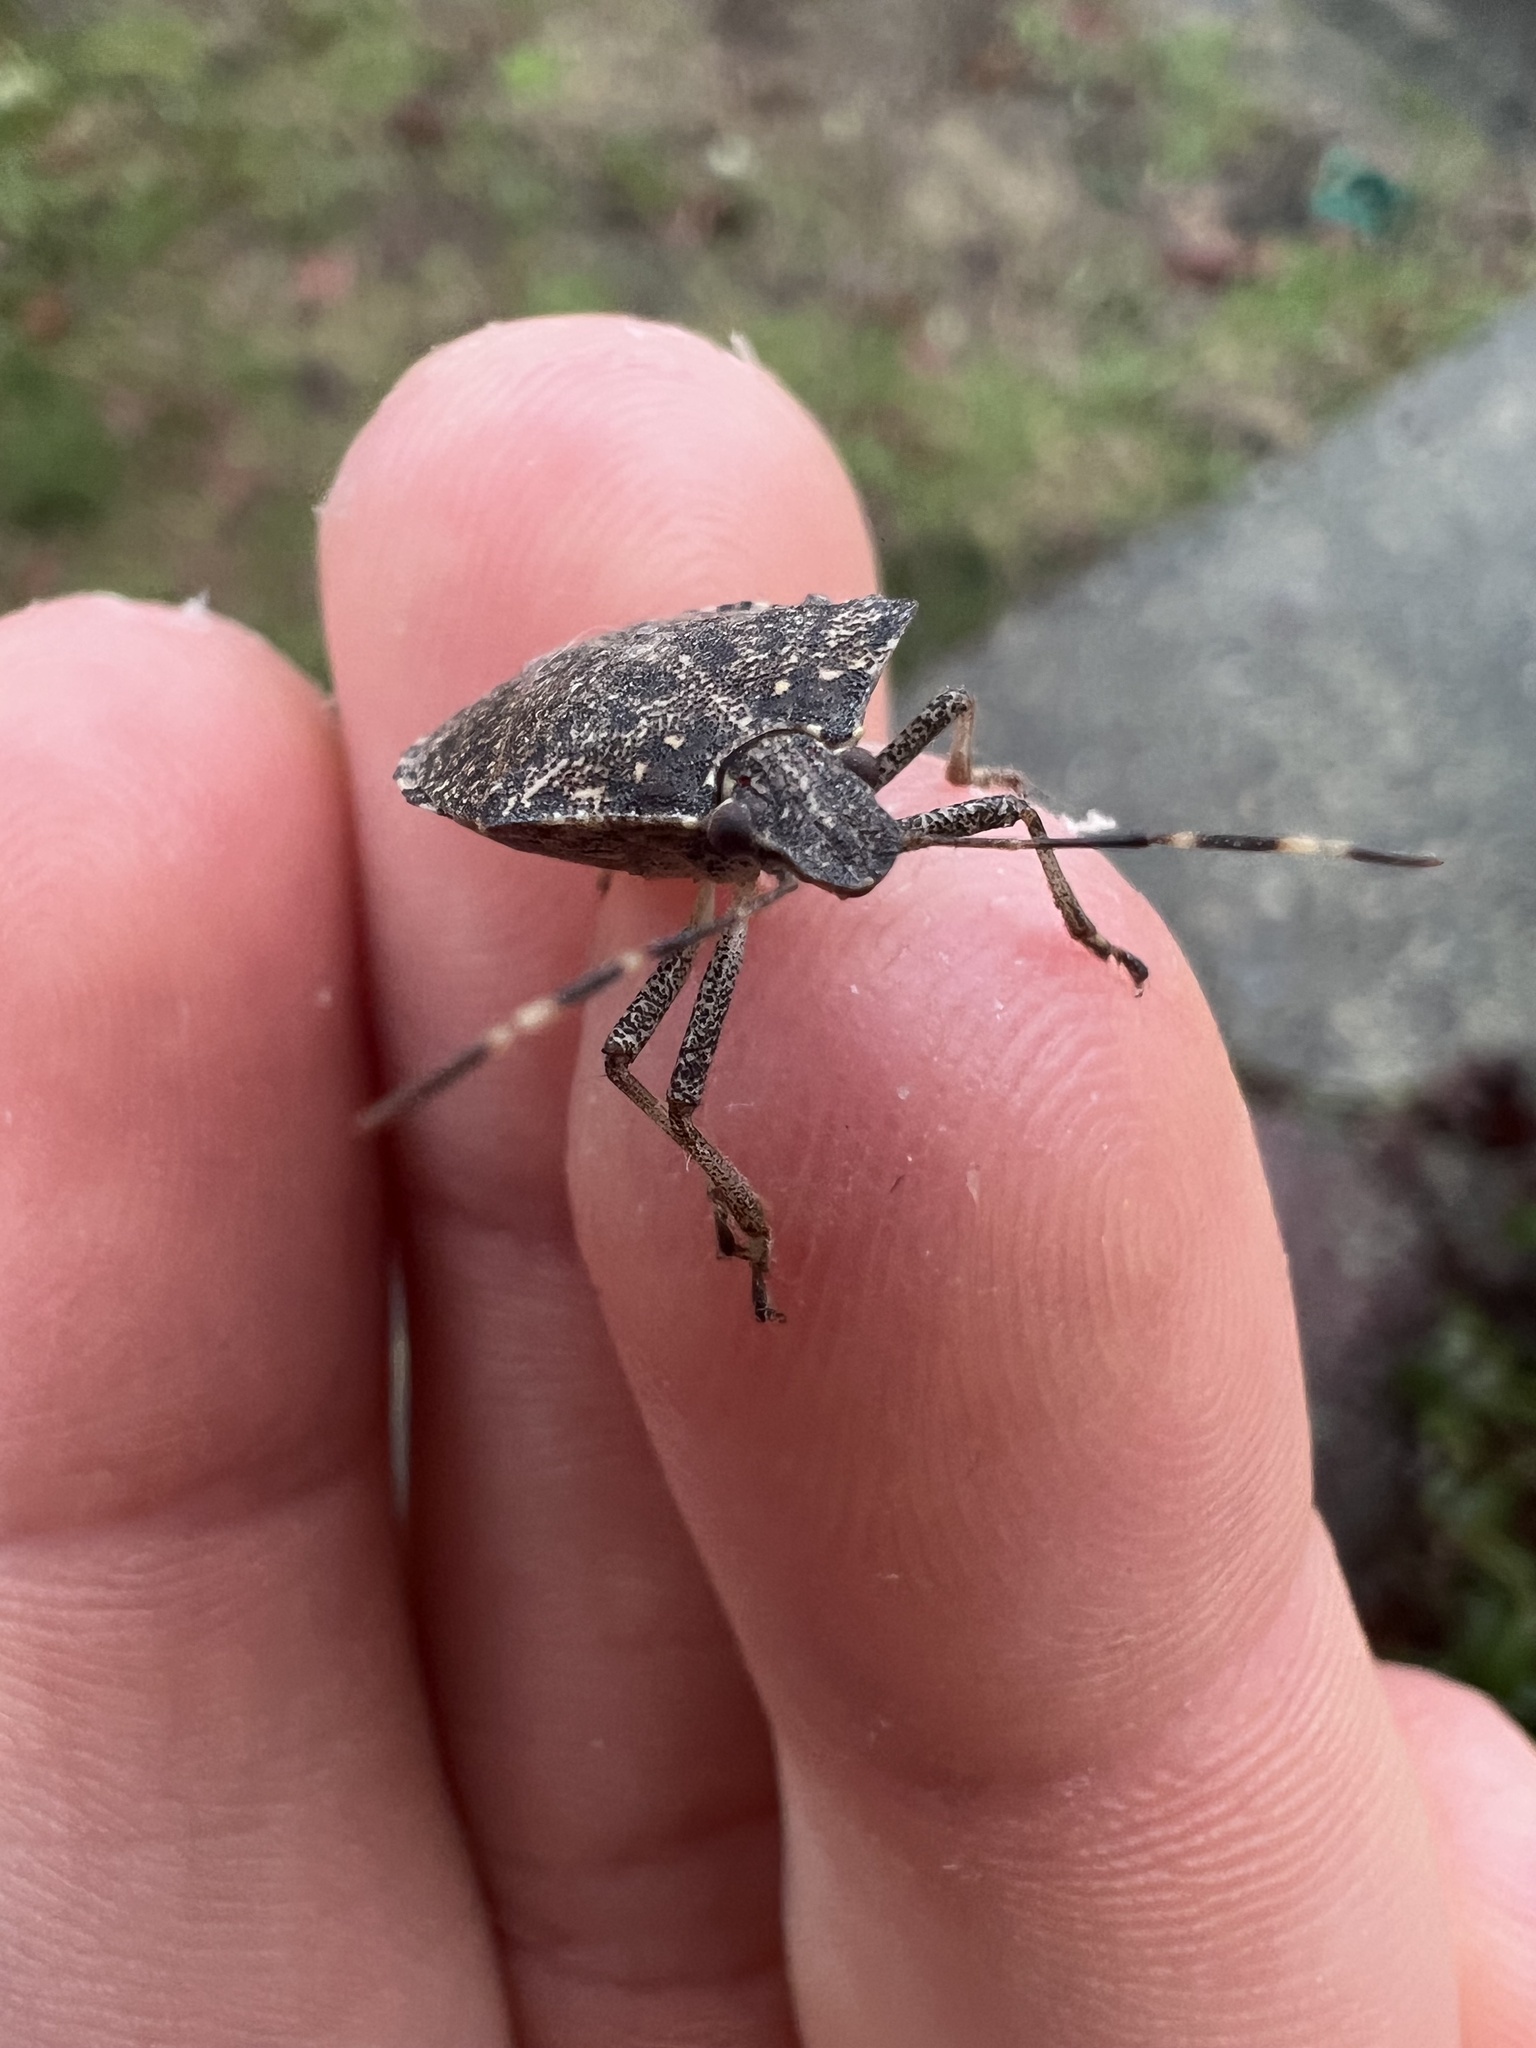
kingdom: Animalia
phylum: Arthropoda
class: Insecta
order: Hemiptera
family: Pentatomidae
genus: Halyomorpha
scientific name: Halyomorpha halys
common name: Brown marmorated stink bug
